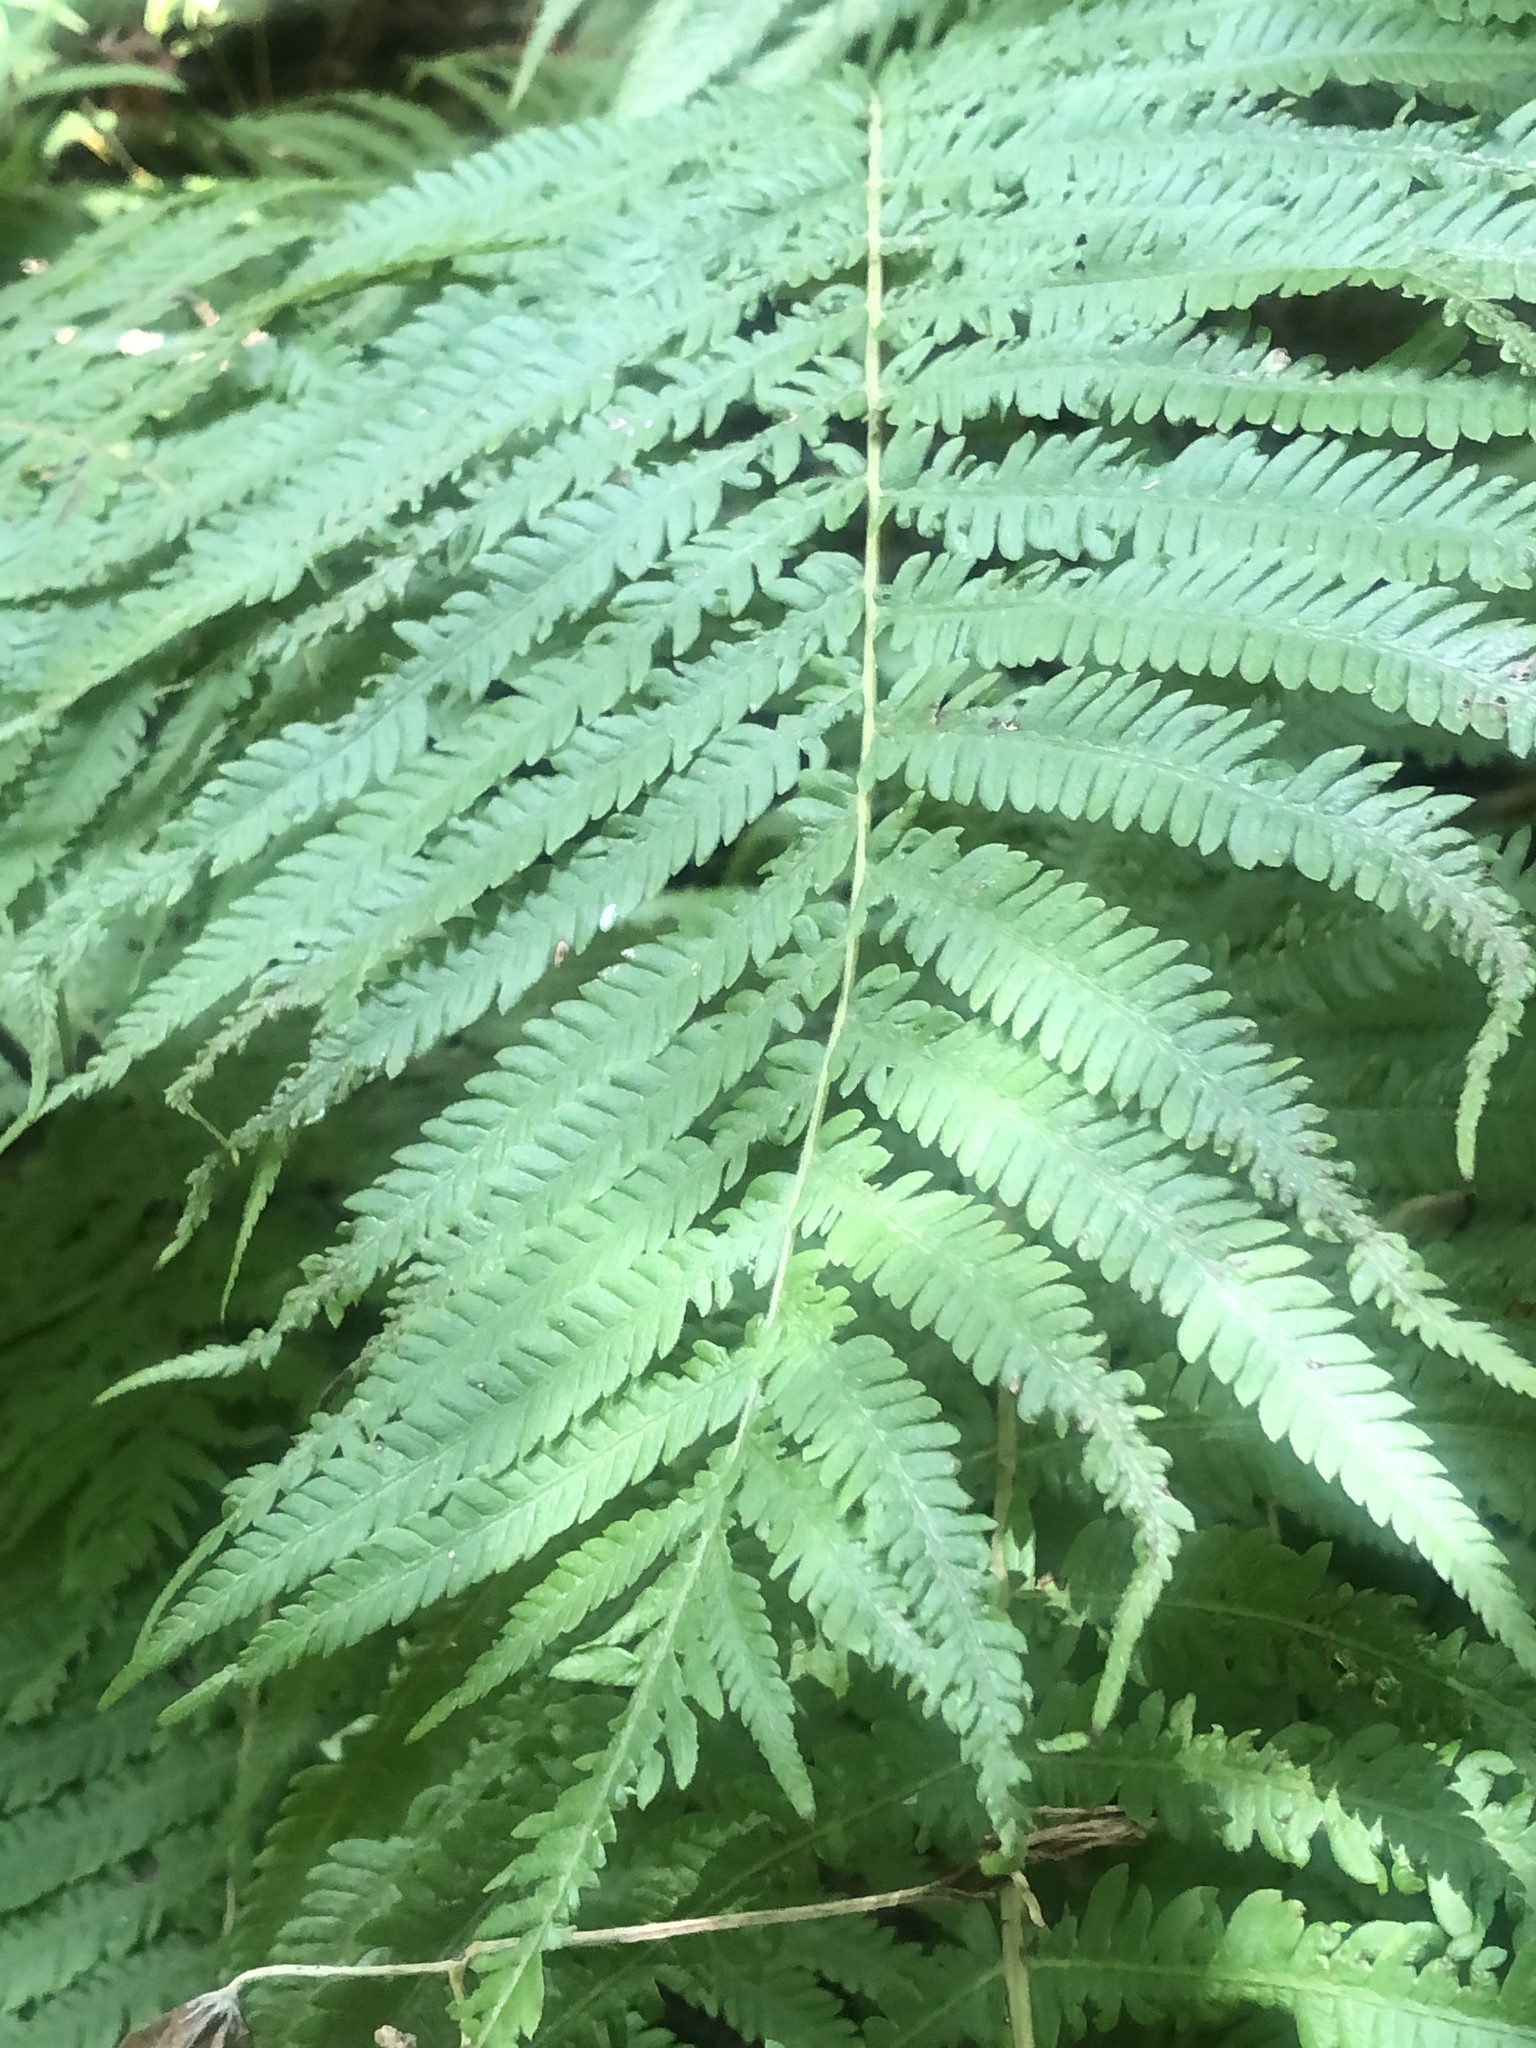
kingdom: Plantae
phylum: Tracheophyta
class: Polypodiopsida
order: Polypodiales
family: Thelypteridaceae
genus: Pelazoneuron
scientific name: Pelazoneuron ovatum
